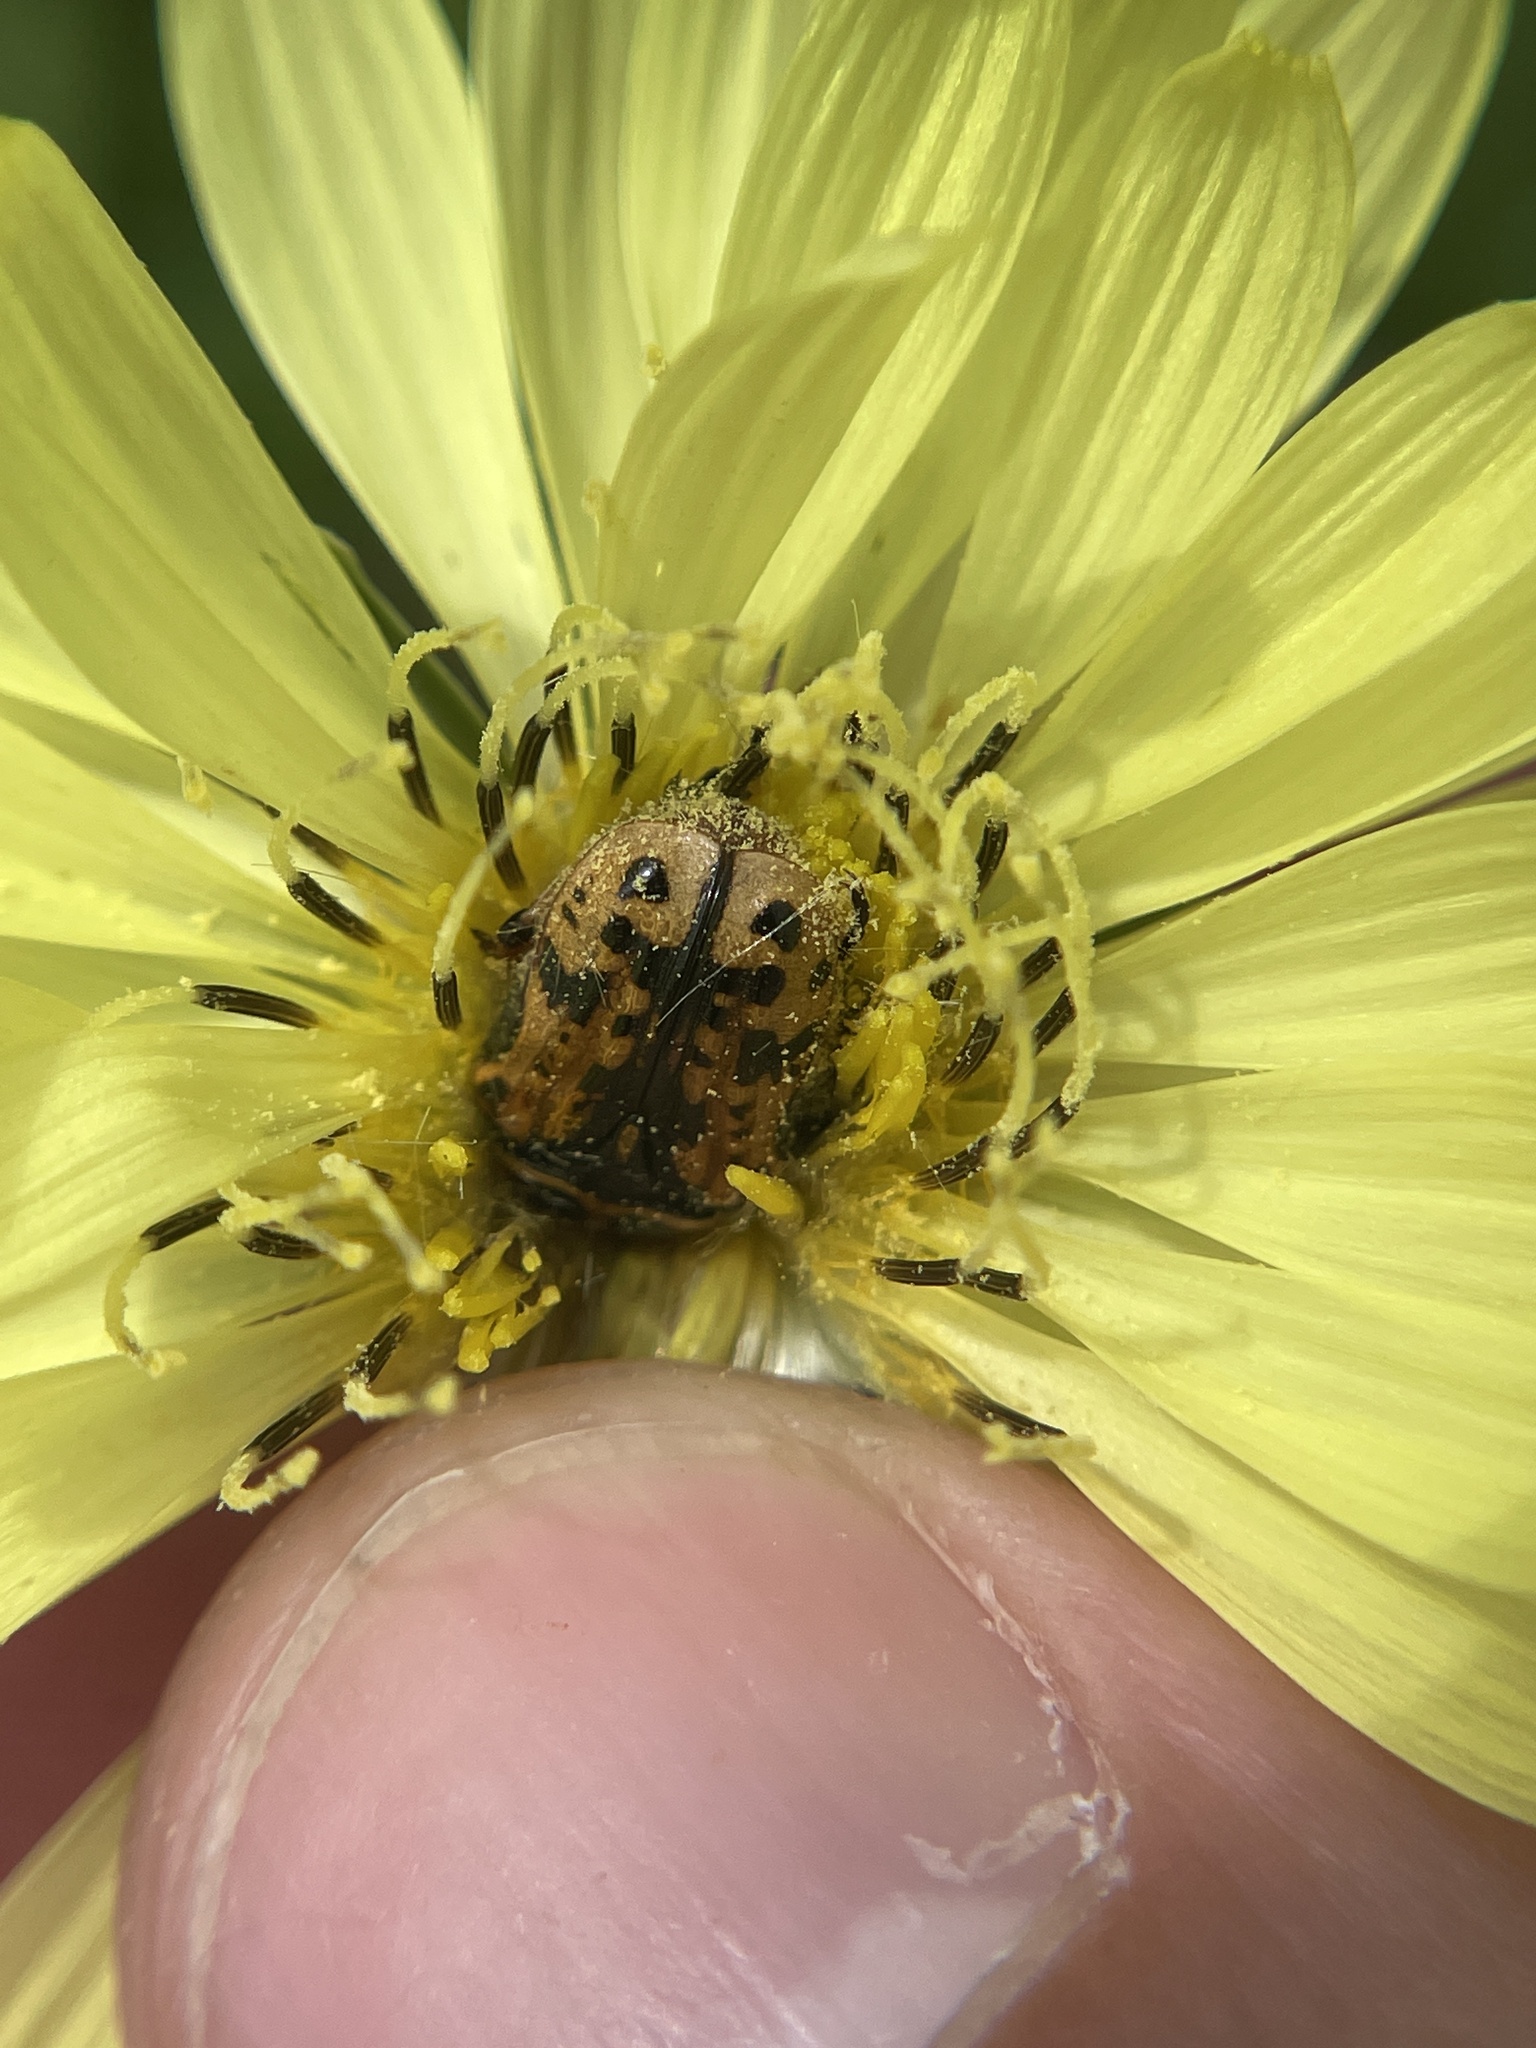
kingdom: Animalia
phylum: Arthropoda
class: Insecta
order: Coleoptera
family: Scarabaeidae
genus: Euphoria
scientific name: Euphoria kernii
